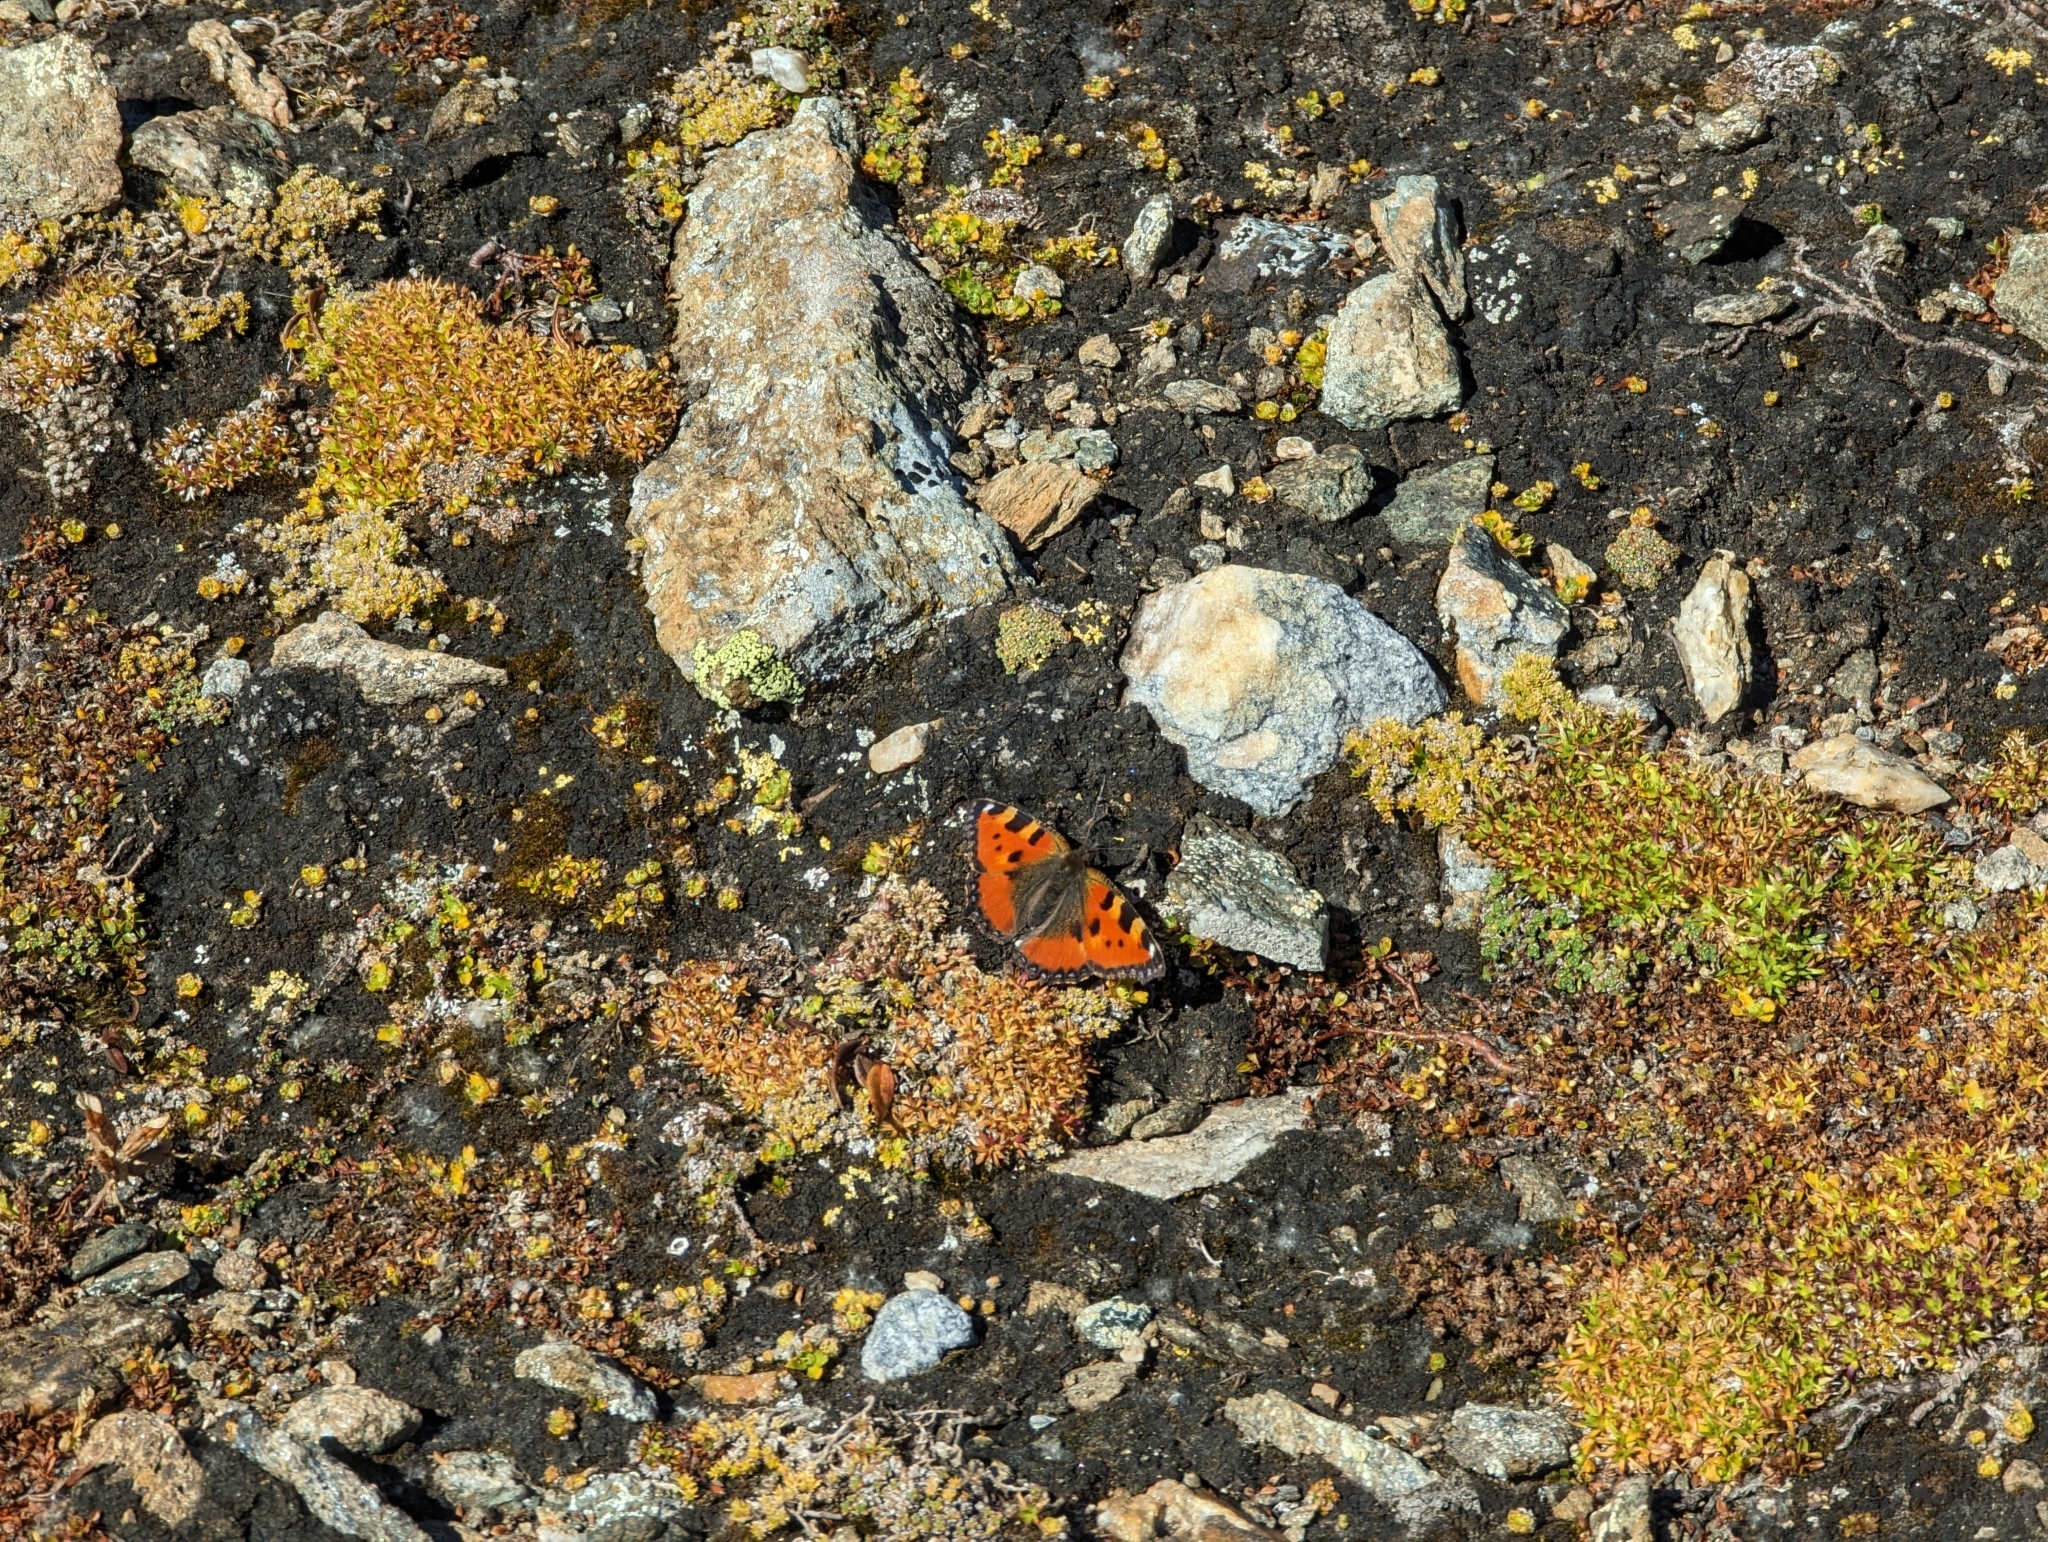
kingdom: Animalia
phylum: Arthropoda
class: Insecta
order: Lepidoptera
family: Nymphalidae
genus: Aglais
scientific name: Aglais urticae
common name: Small tortoiseshell
